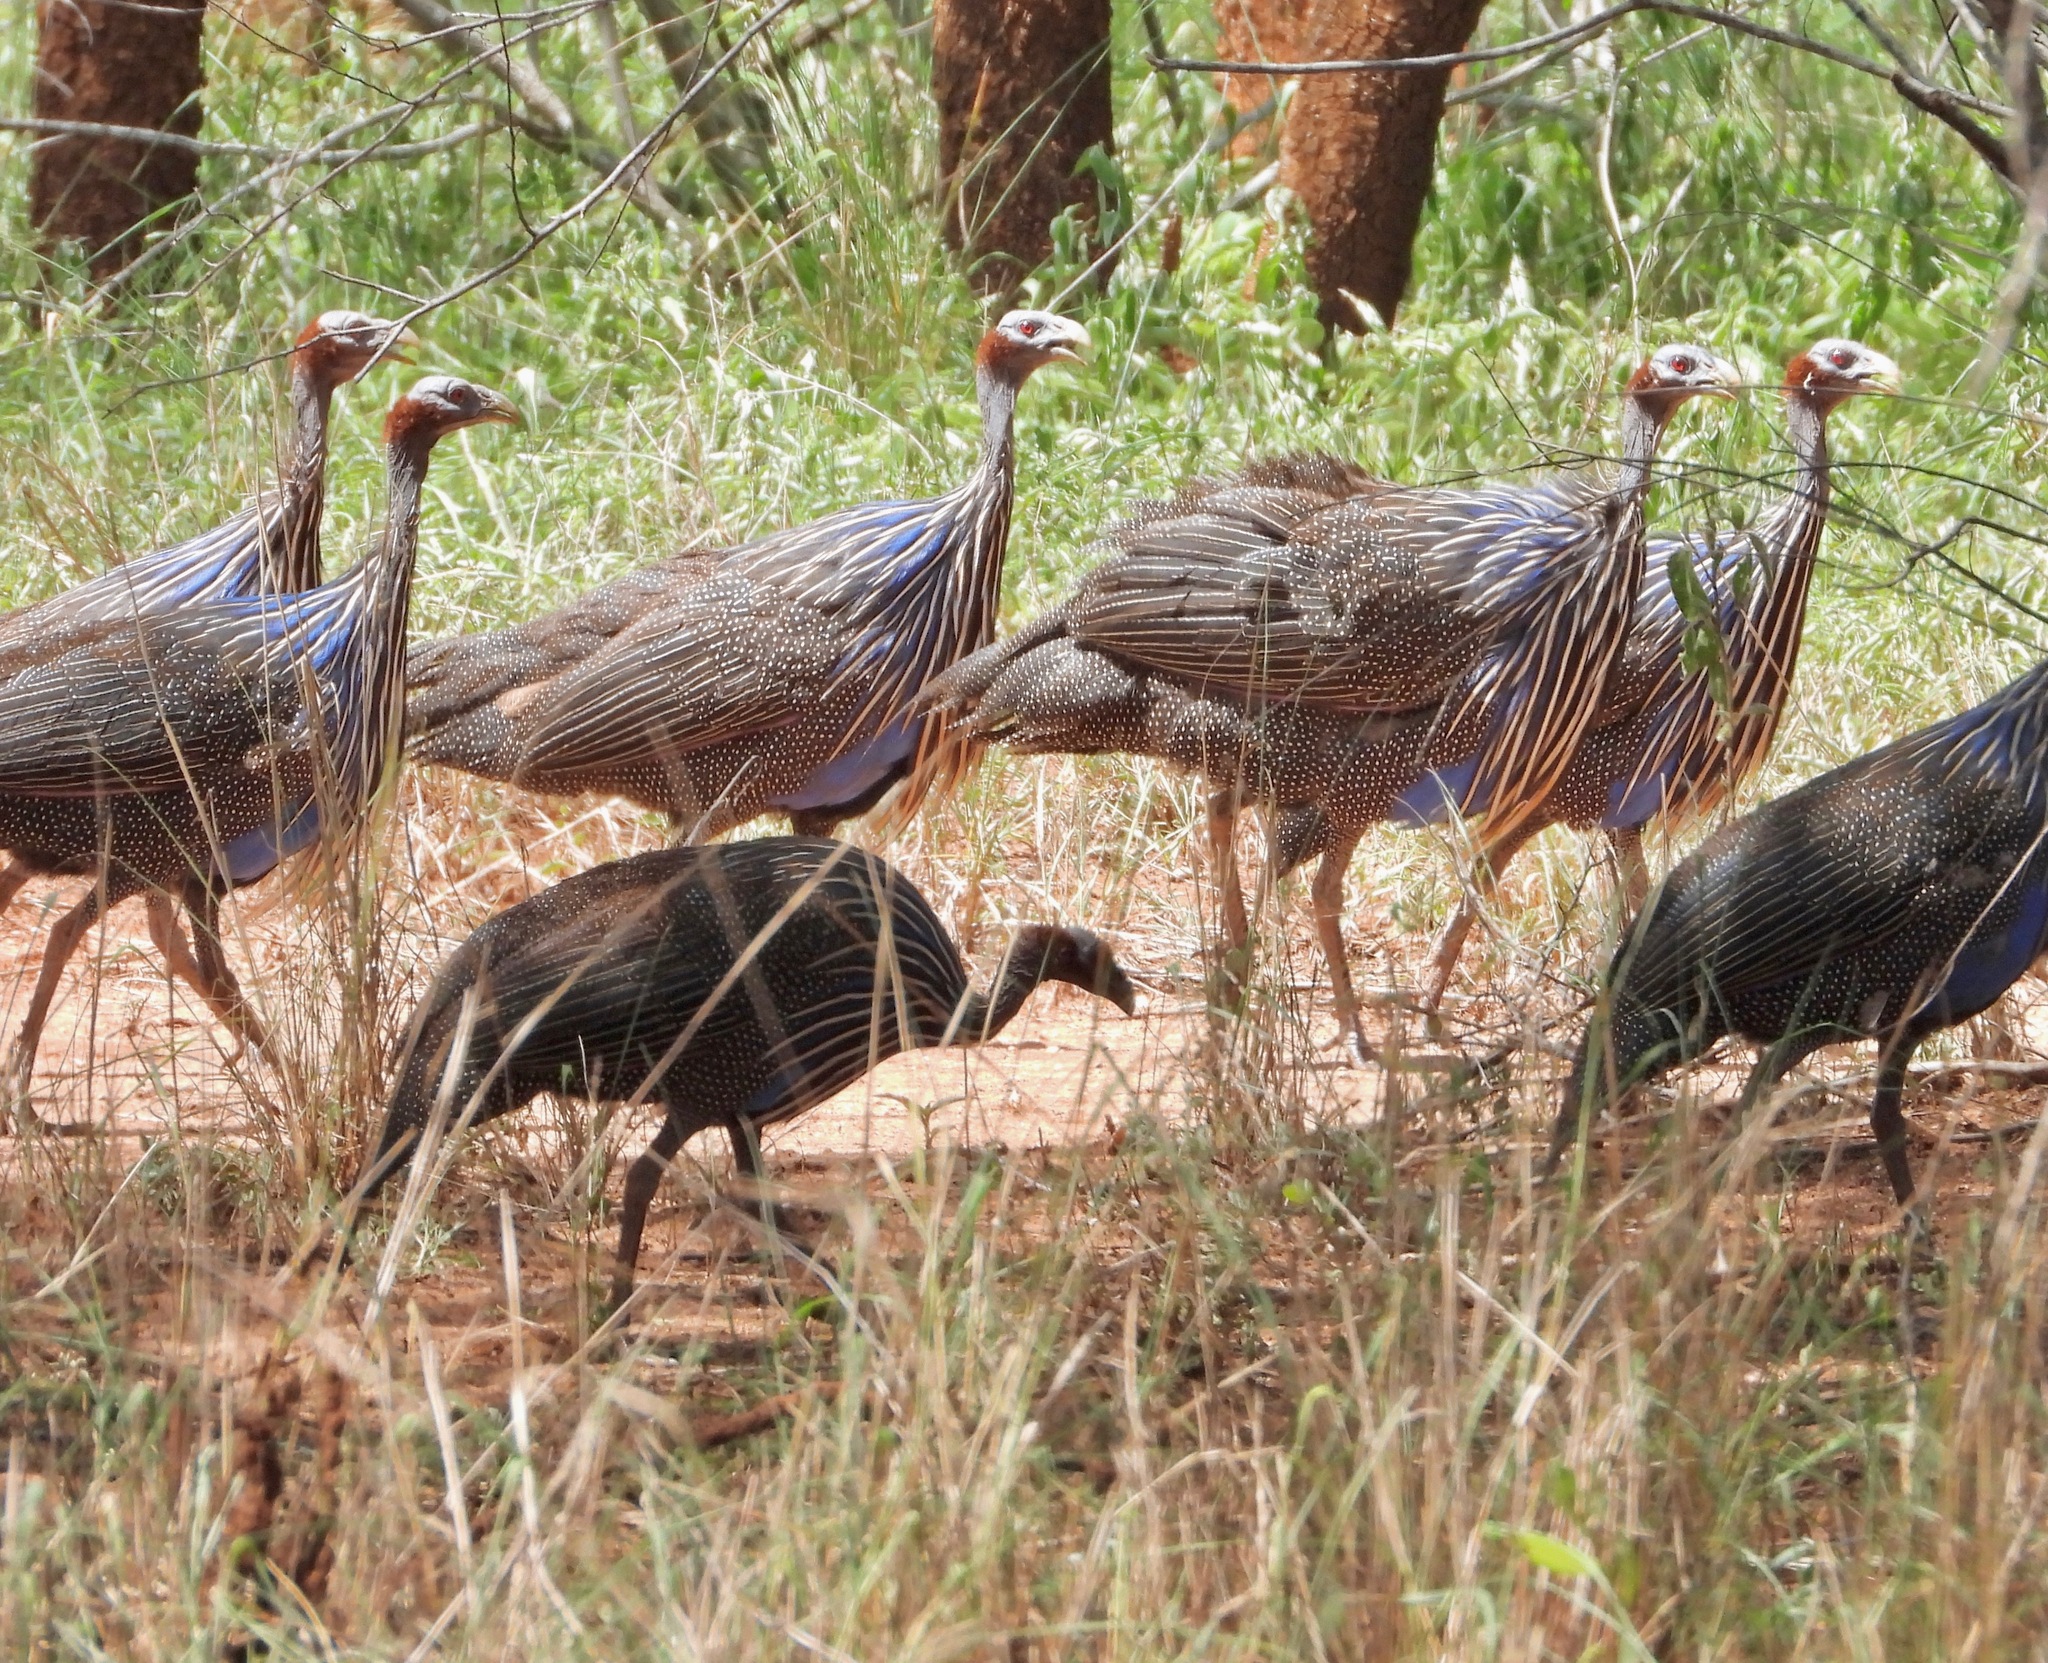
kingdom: Animalia
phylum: Chordata
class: Aves
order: Galliformes
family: Numididae
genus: Acryllium
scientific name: Acryllium vulturinum
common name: Vulturine guineafowl
